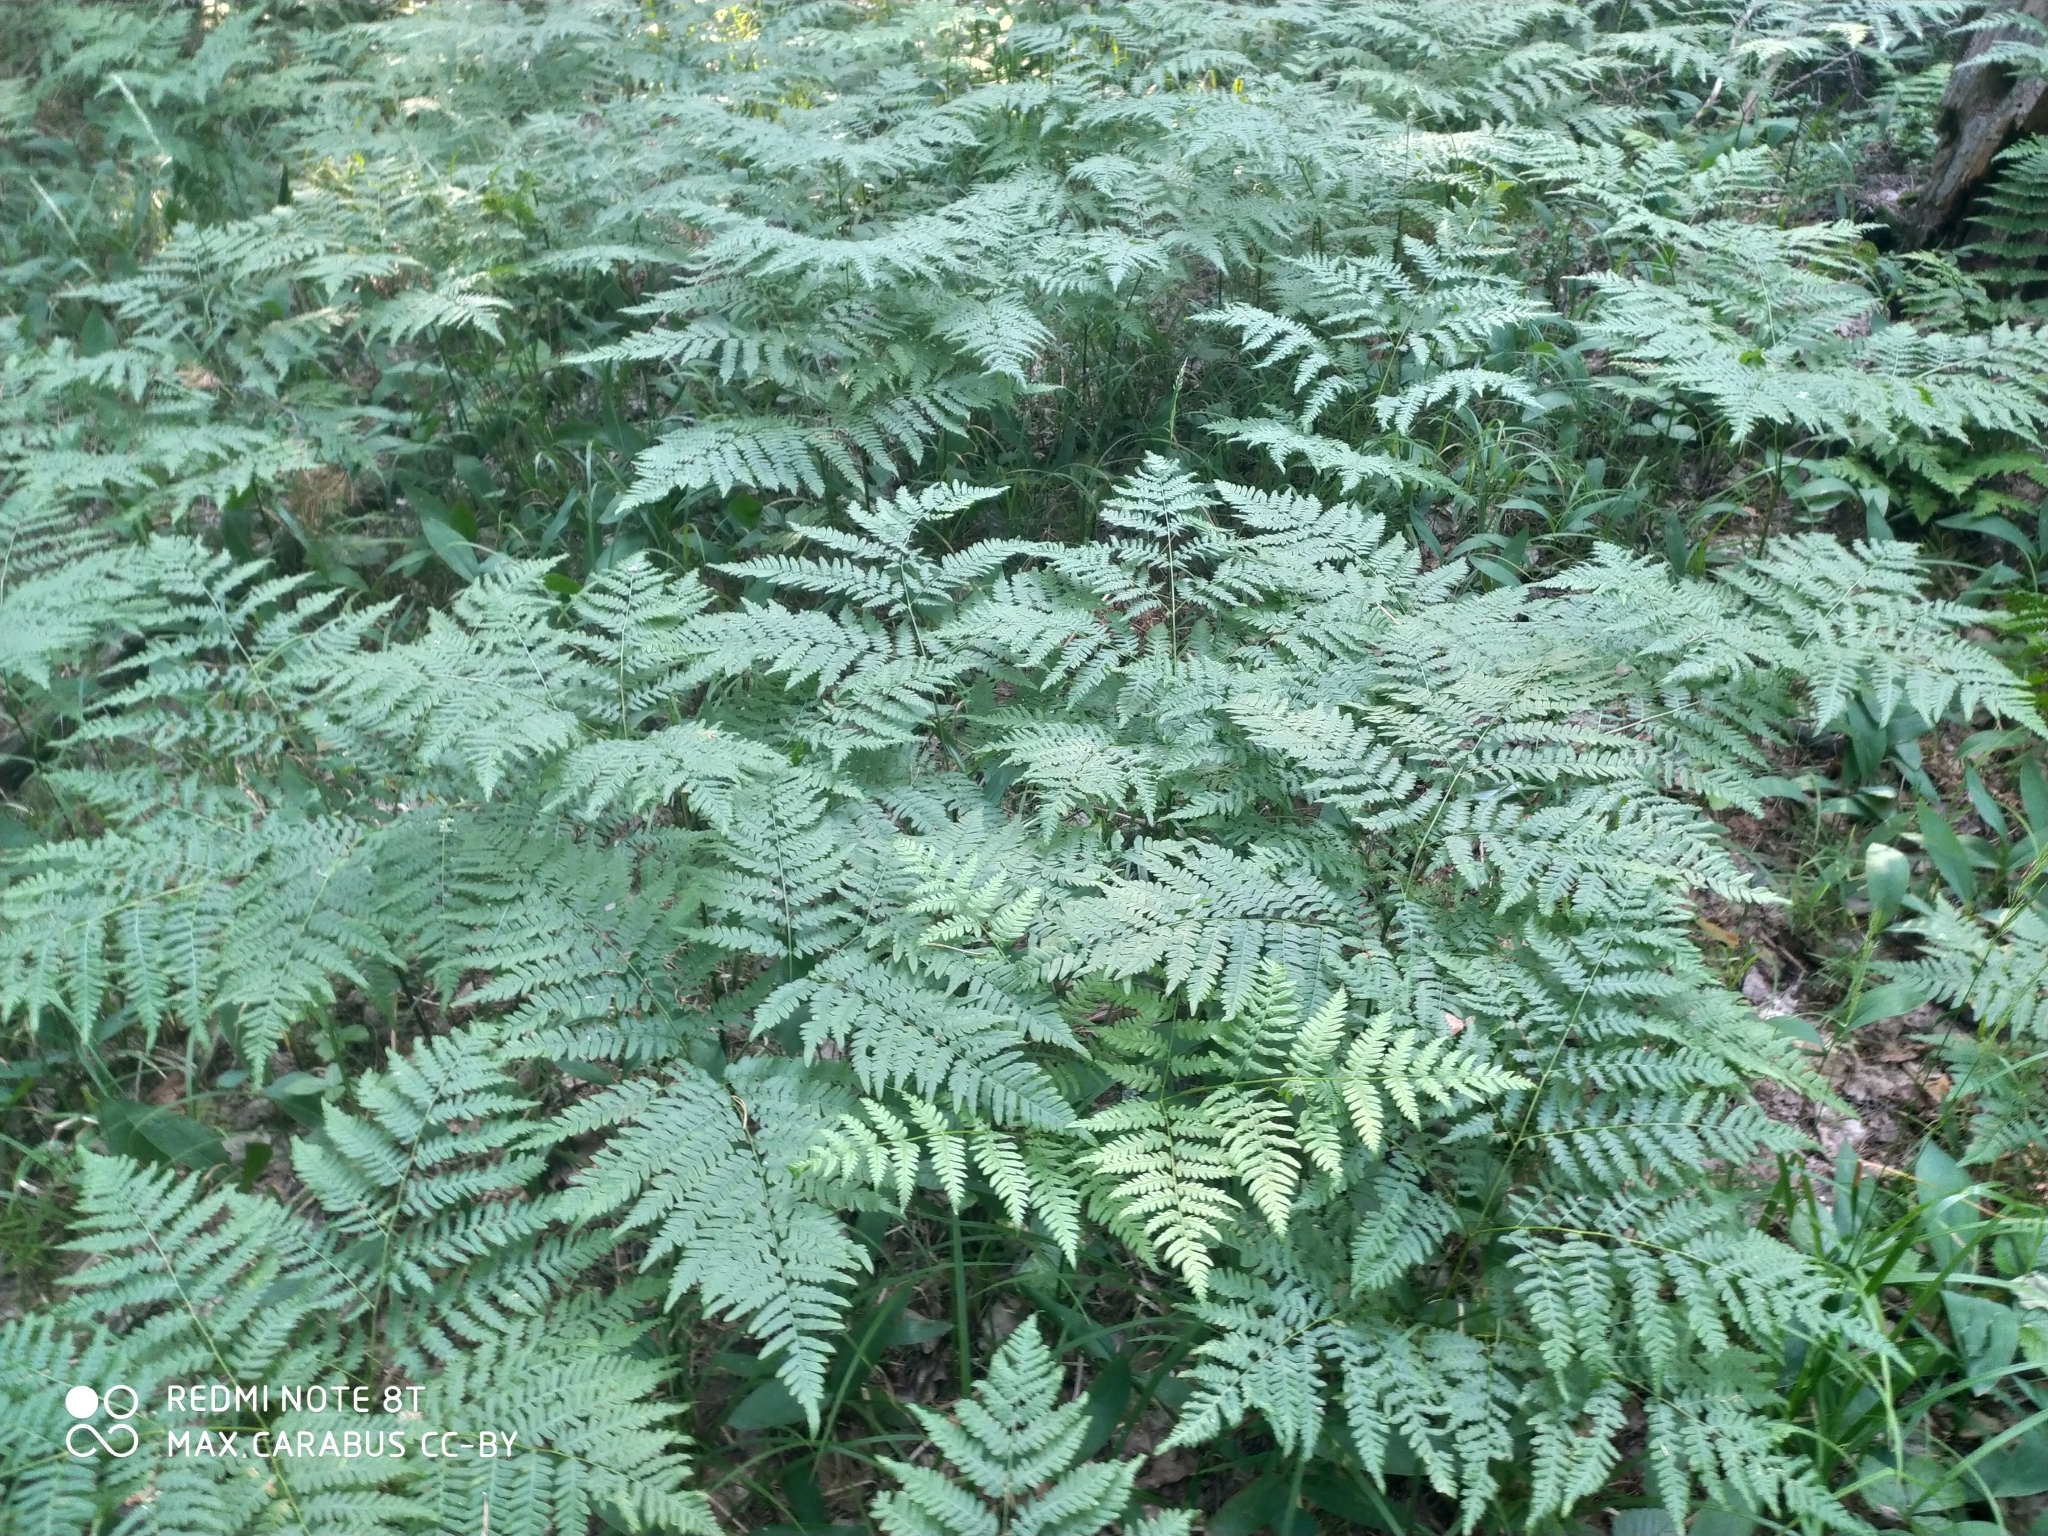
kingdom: Plantae
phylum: Tracheophyta
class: Polypodiopsida
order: Polypodiales
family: Dennstaedtiaceae
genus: Pteridium
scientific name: Pteridium aquilinum
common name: Bracken
